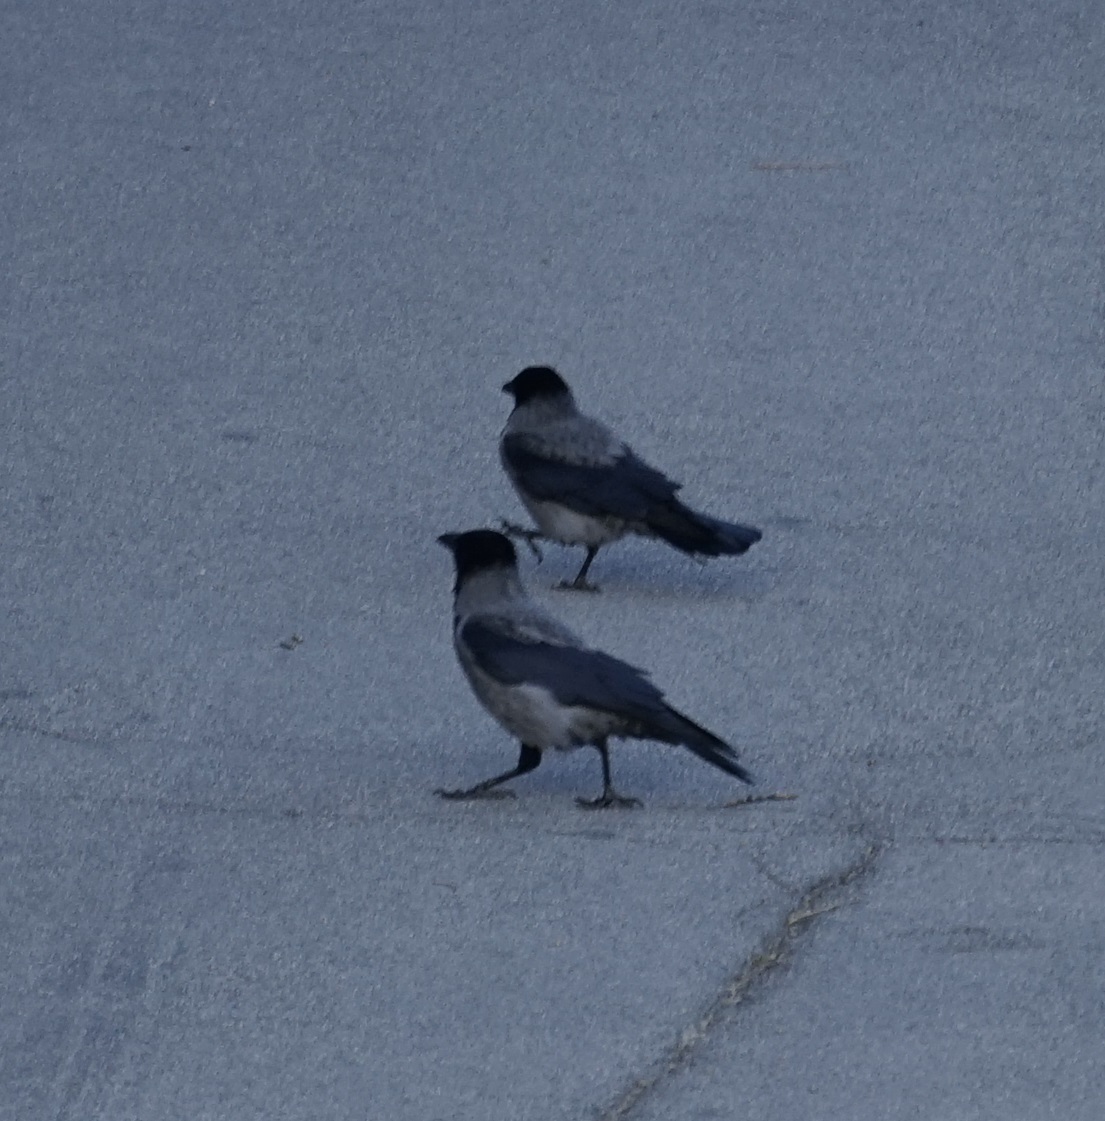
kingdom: Animalia
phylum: Chordata
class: Aves
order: Passeriformes
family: Corvidae
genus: Corvus
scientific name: Corvus cornix
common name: Hooded crow
